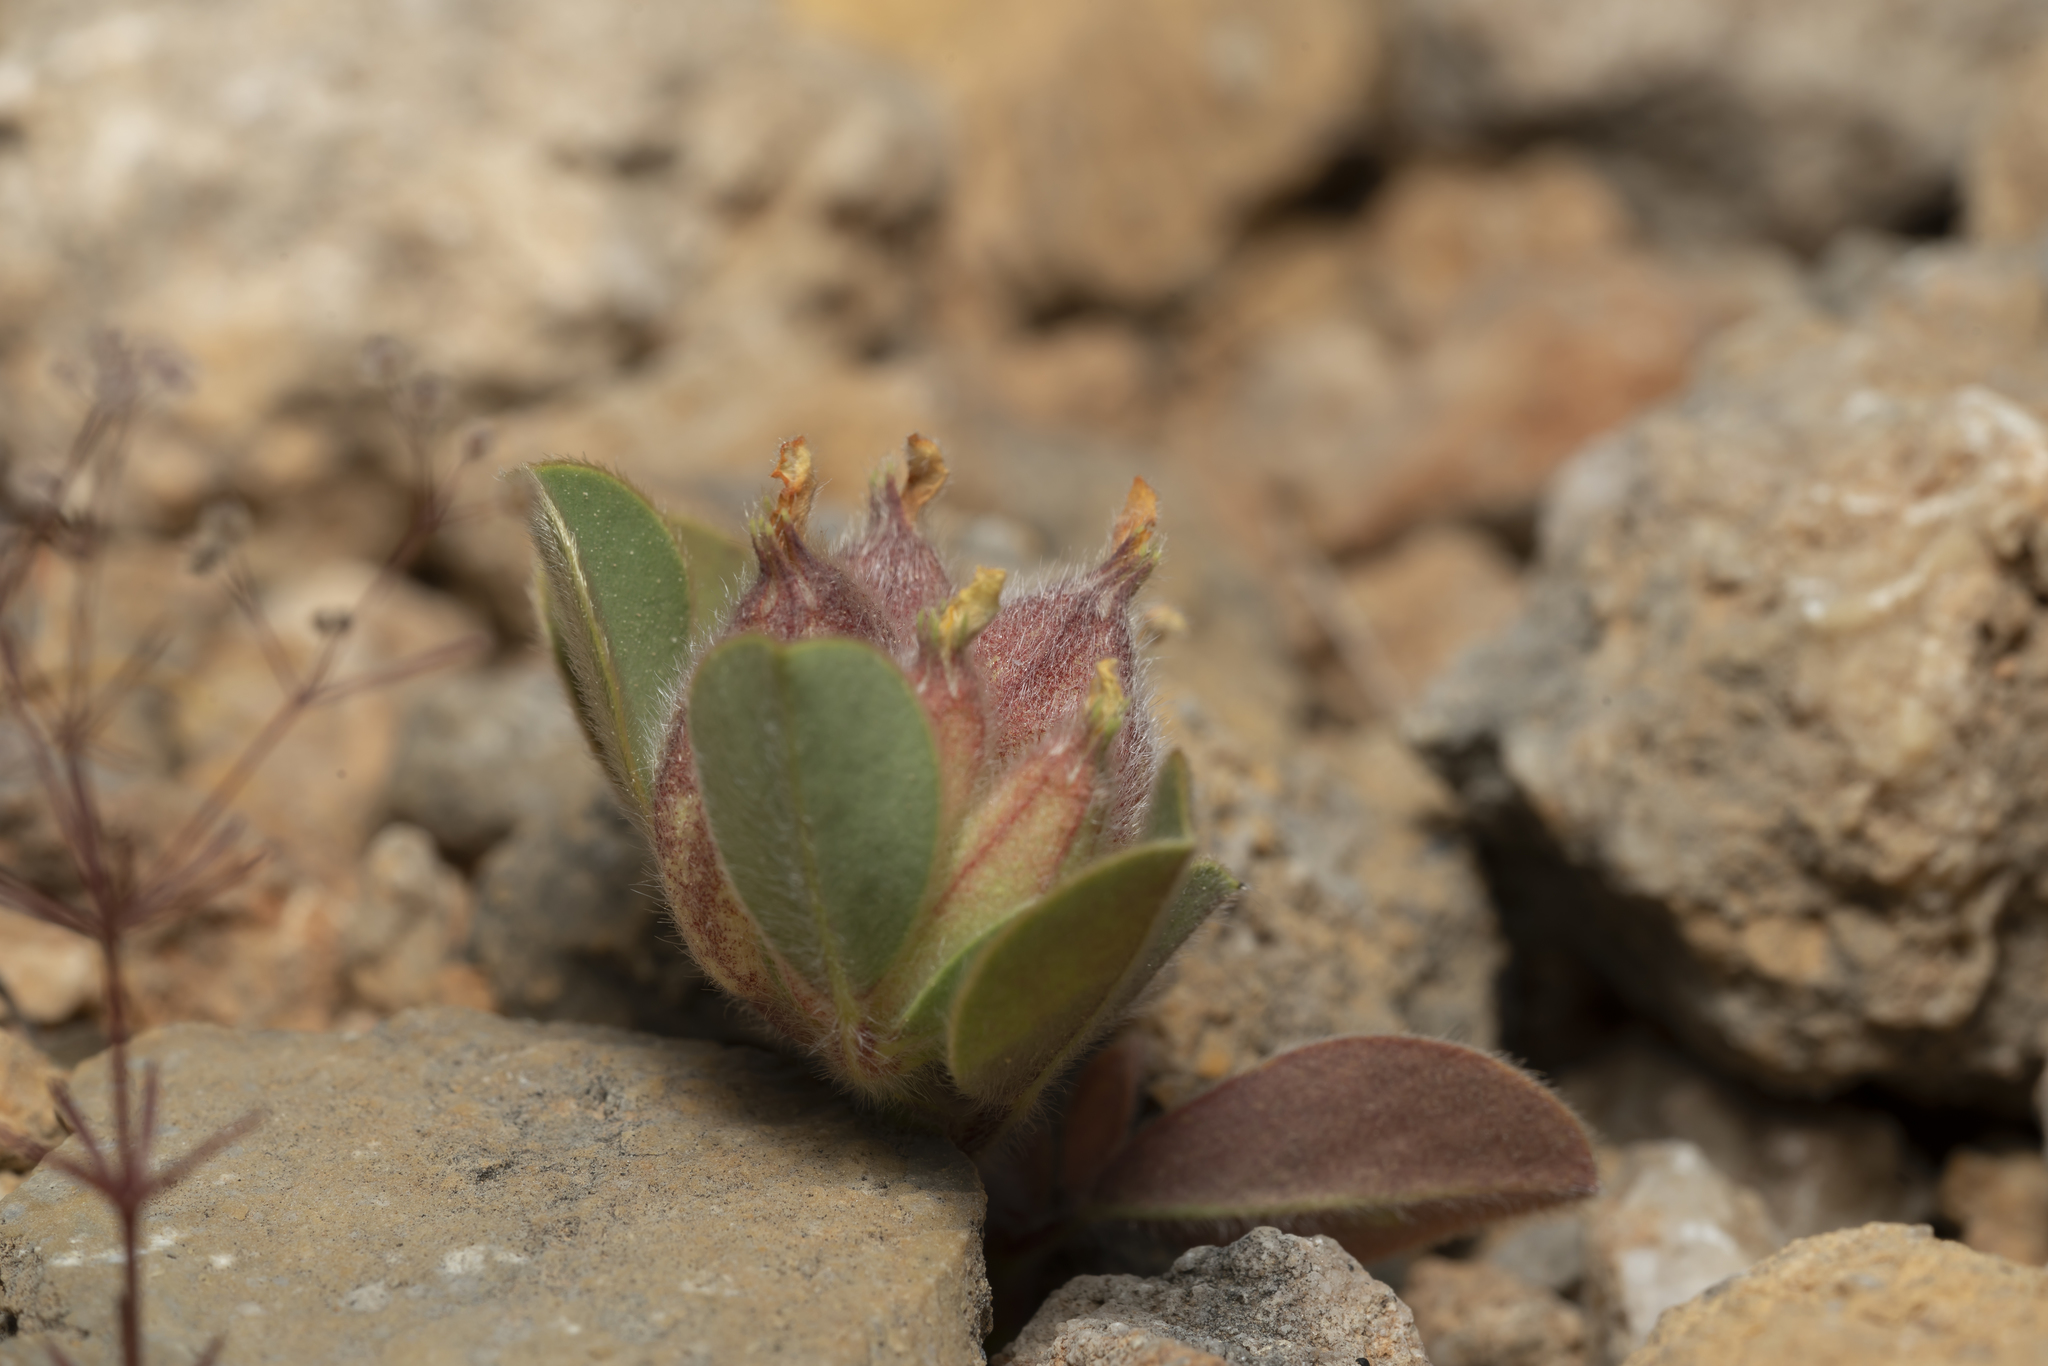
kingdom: Plantae
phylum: Tracheophyta
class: Magnoliopsida
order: Fabales
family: Fabaceae
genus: Tripodion
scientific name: Tripodion tetraphyllum
